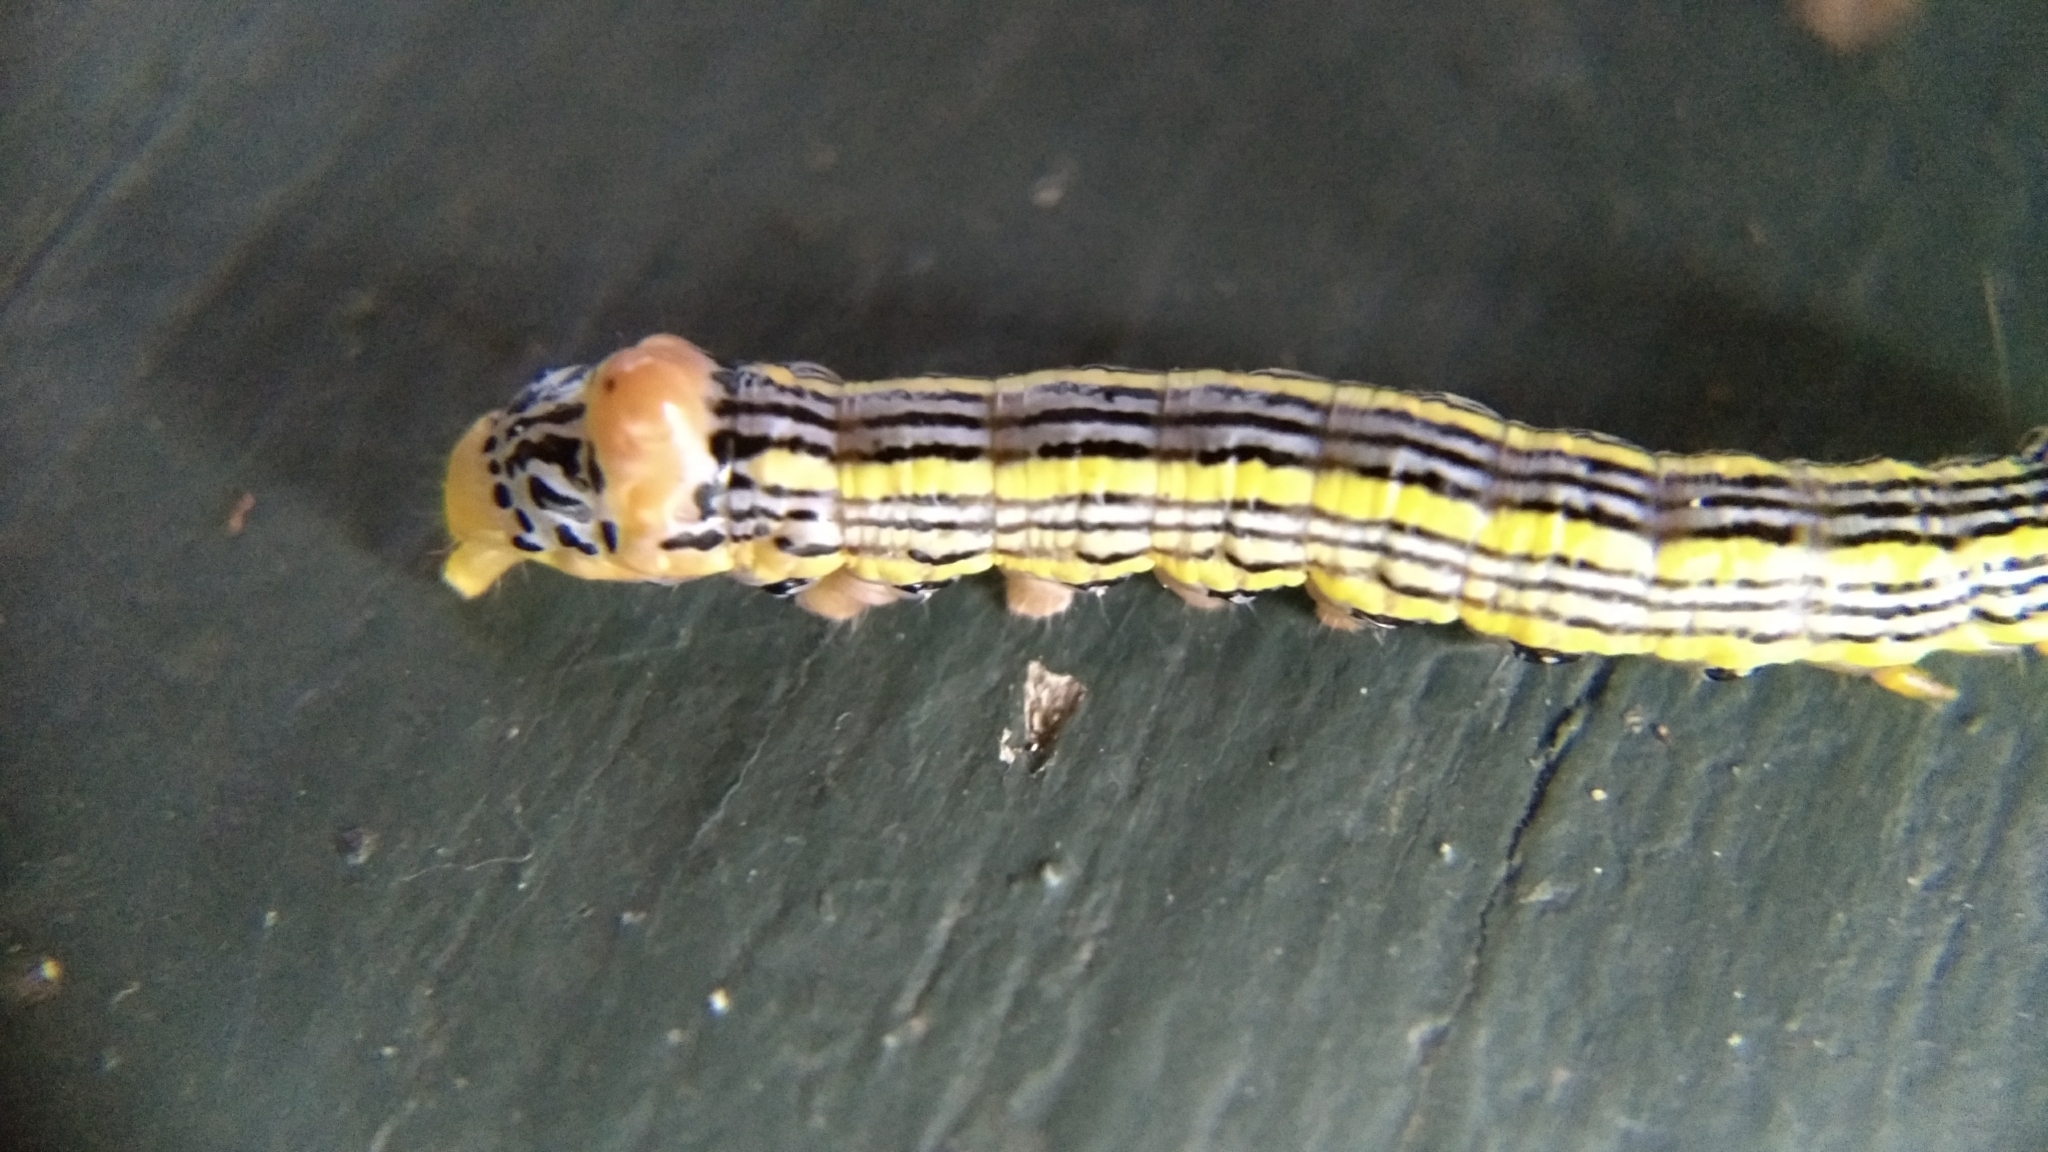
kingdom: Animalia
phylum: Arthropoda
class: Insecta
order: Lepidoptera
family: Notodontidae
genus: Symmerista
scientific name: Symmerista leucitys
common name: Orange-humped mapleworm
